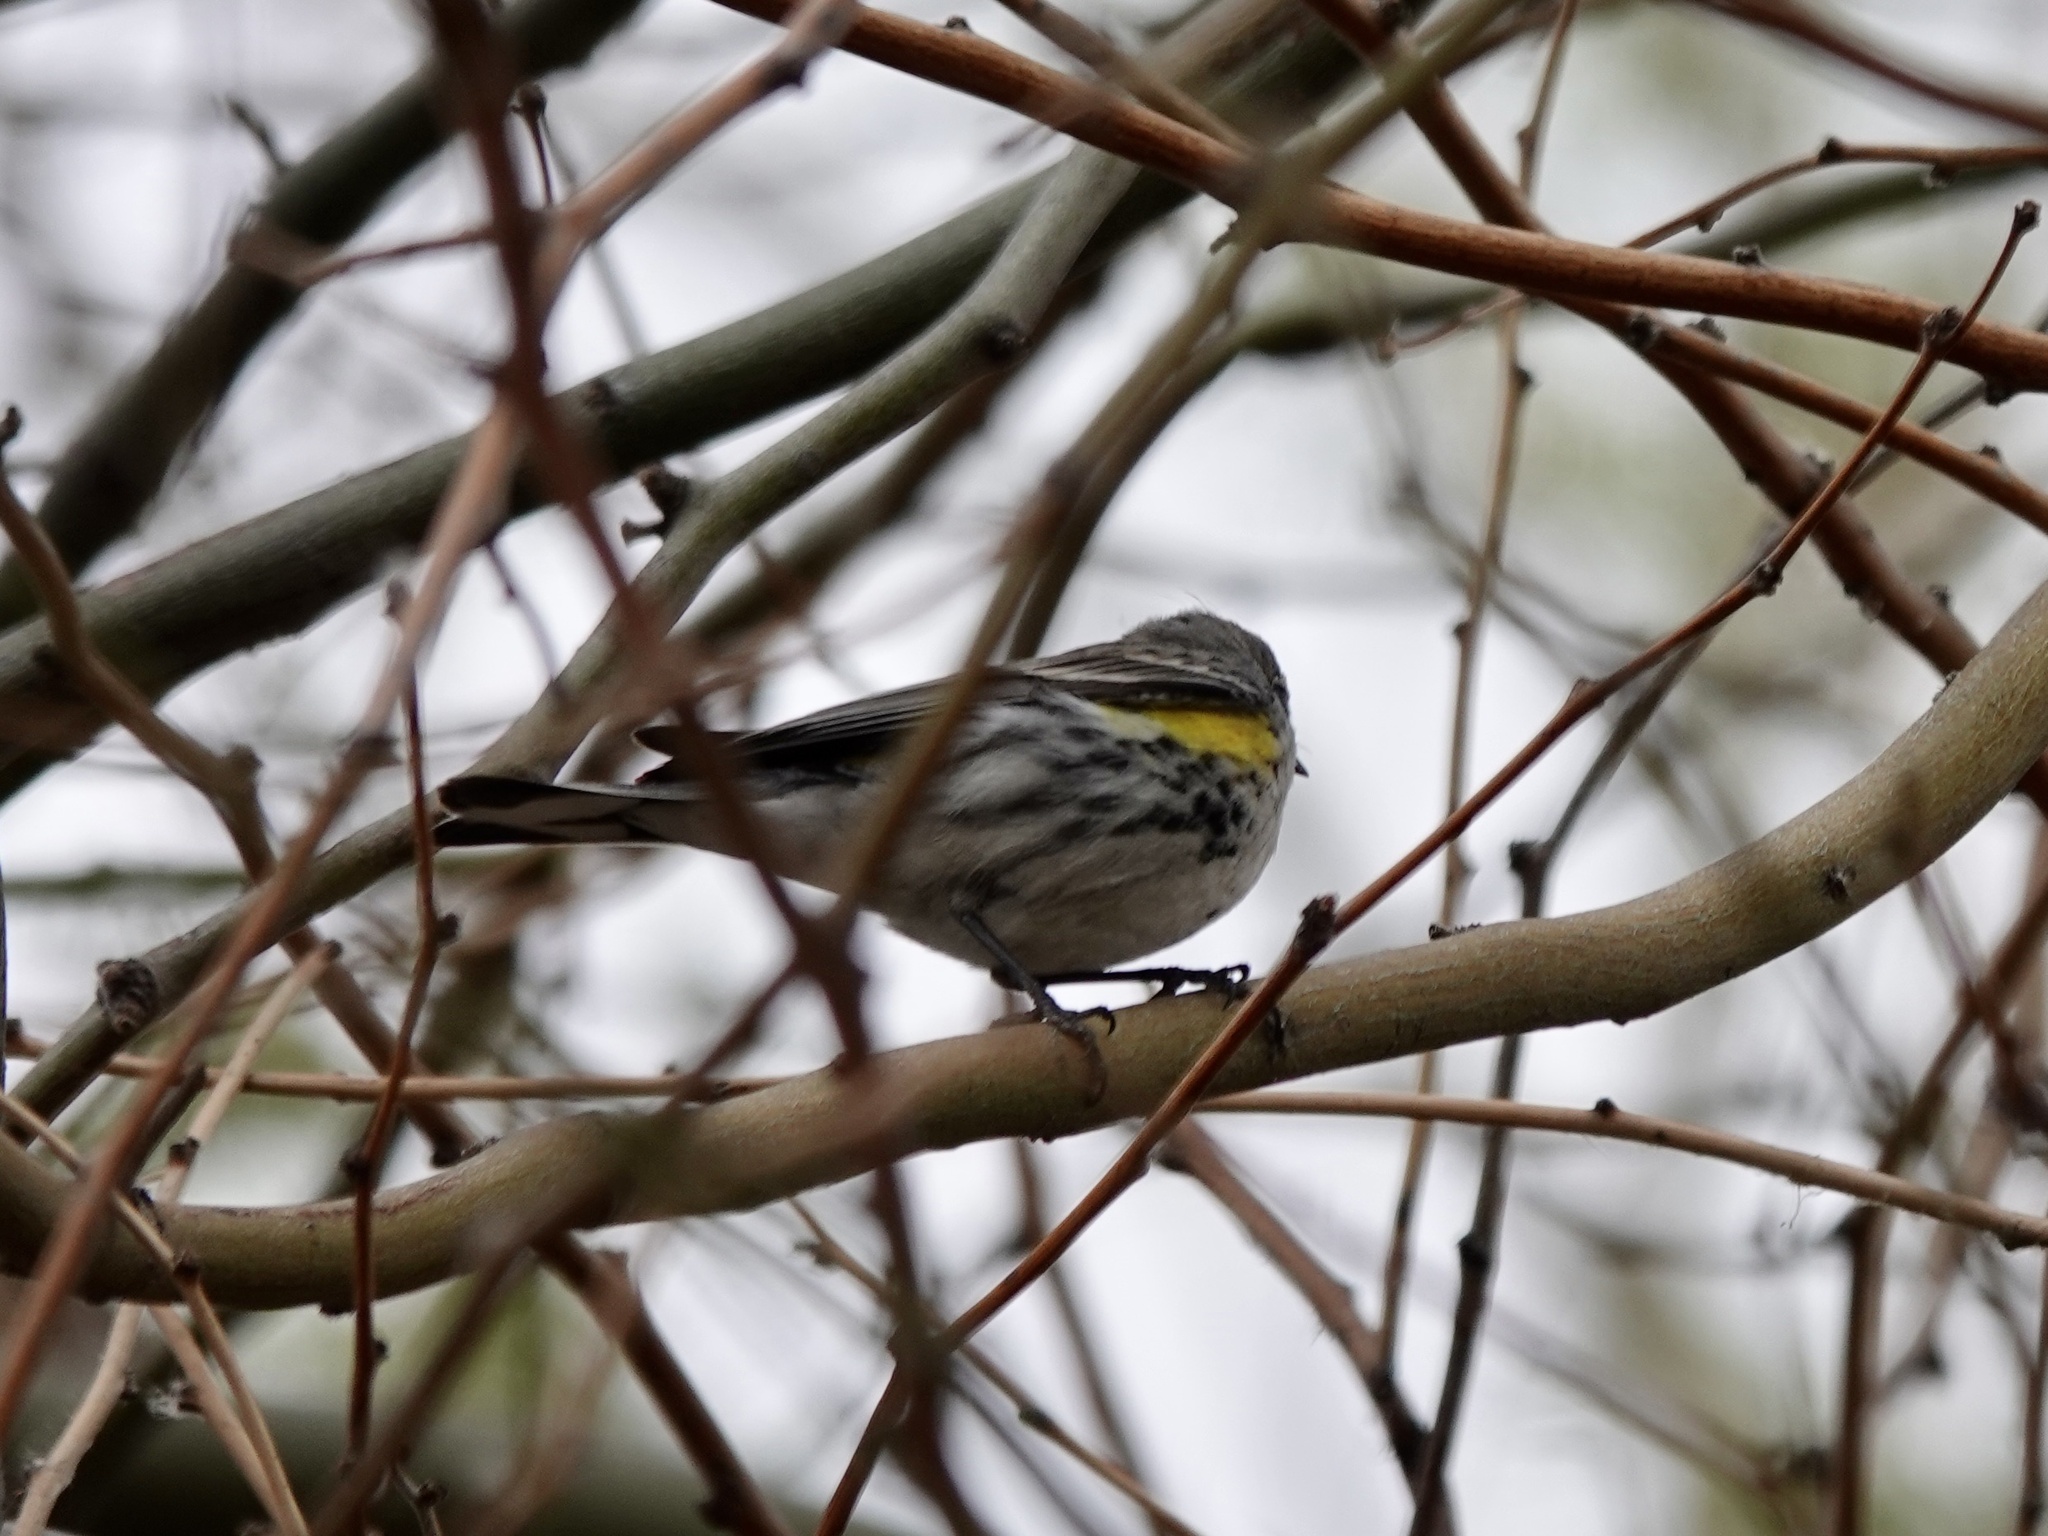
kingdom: Animalia
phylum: Chordata
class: Aves
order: Passeriformes
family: Parulidae
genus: Setophaga
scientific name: Setophaga coronata
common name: Myrtle warbler
